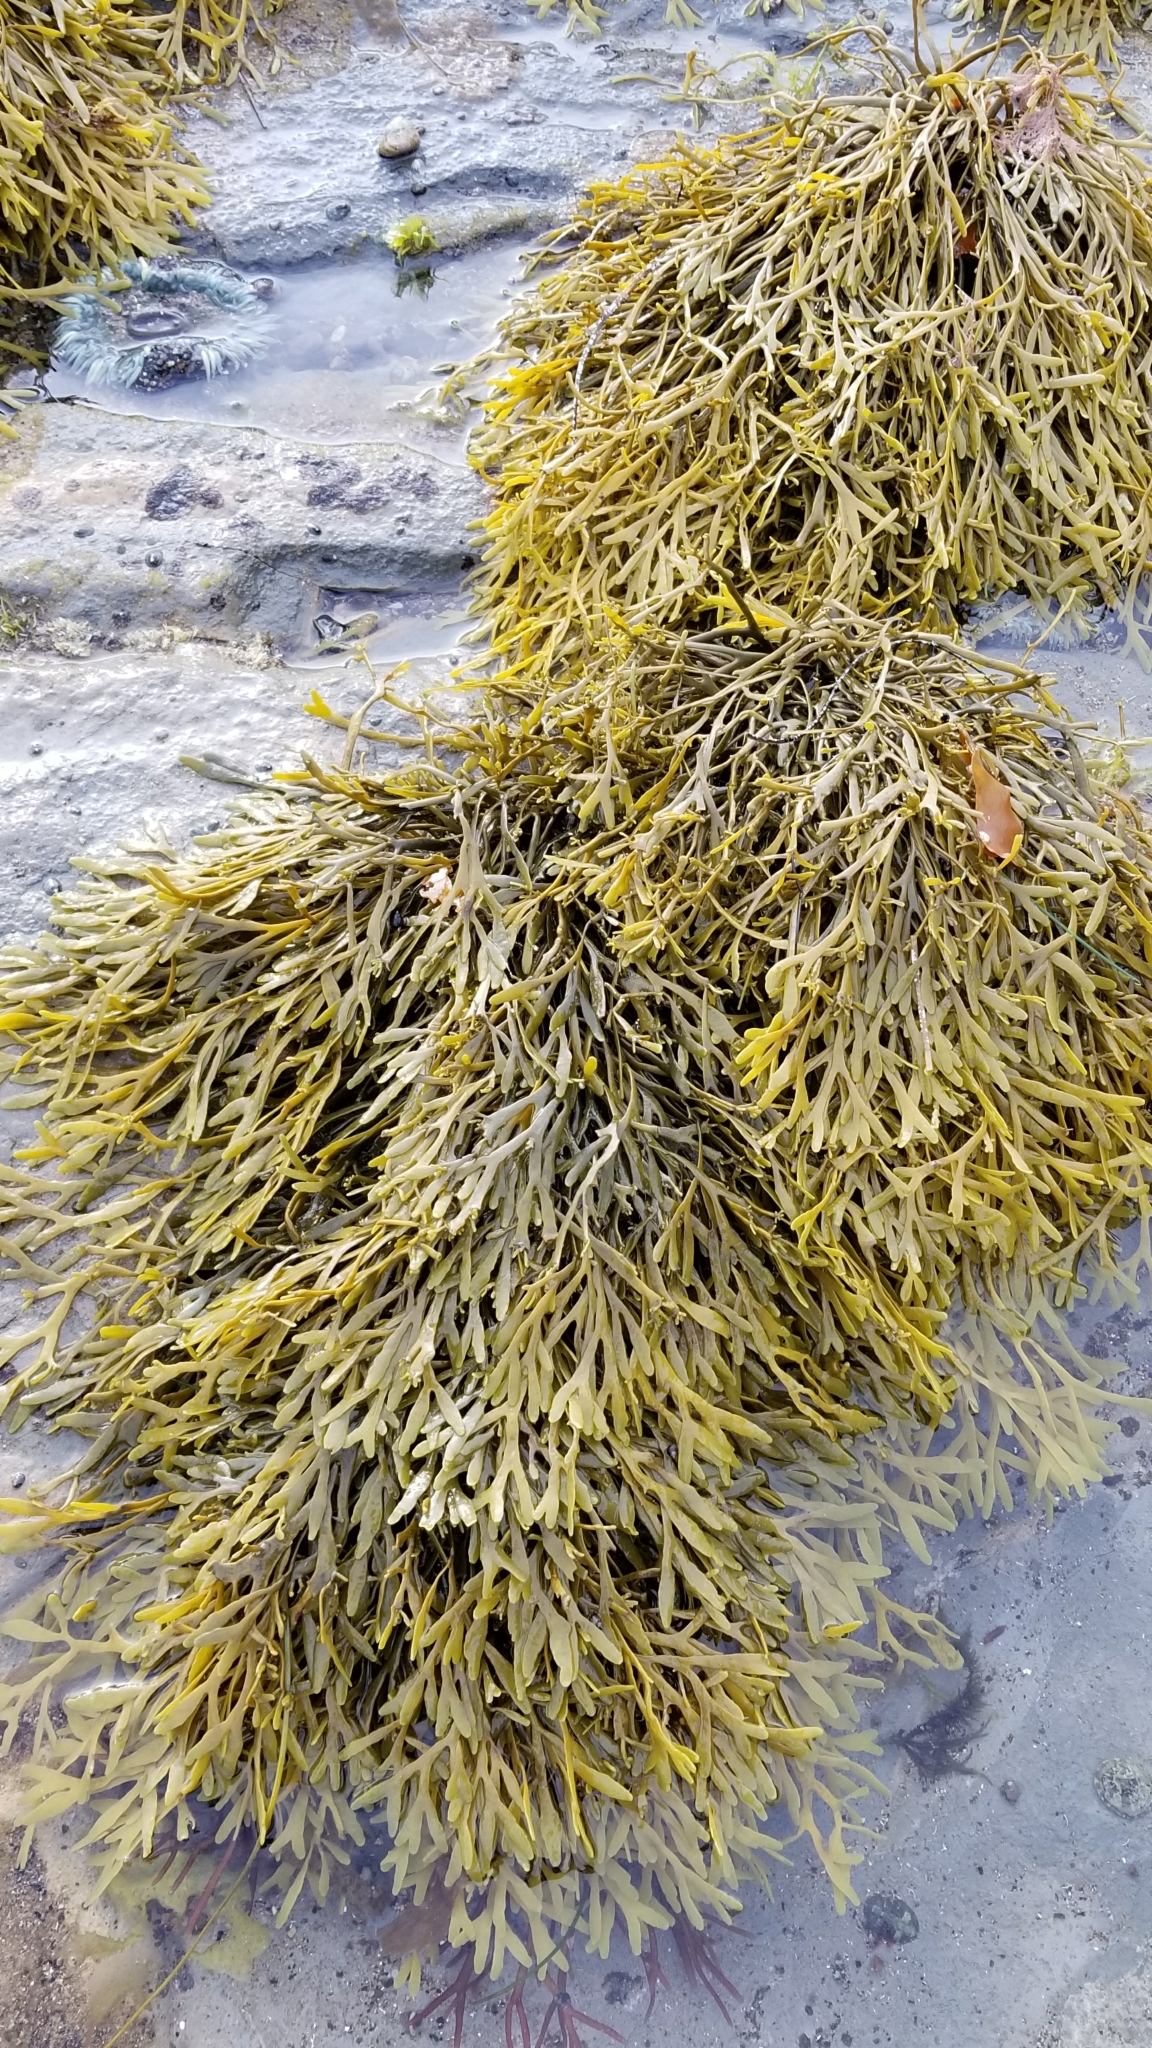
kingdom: Chromista
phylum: Ochrophyta
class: Phaeophyceae
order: Fucales
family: Fucaceae
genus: Silvetia
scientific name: Silvetia
